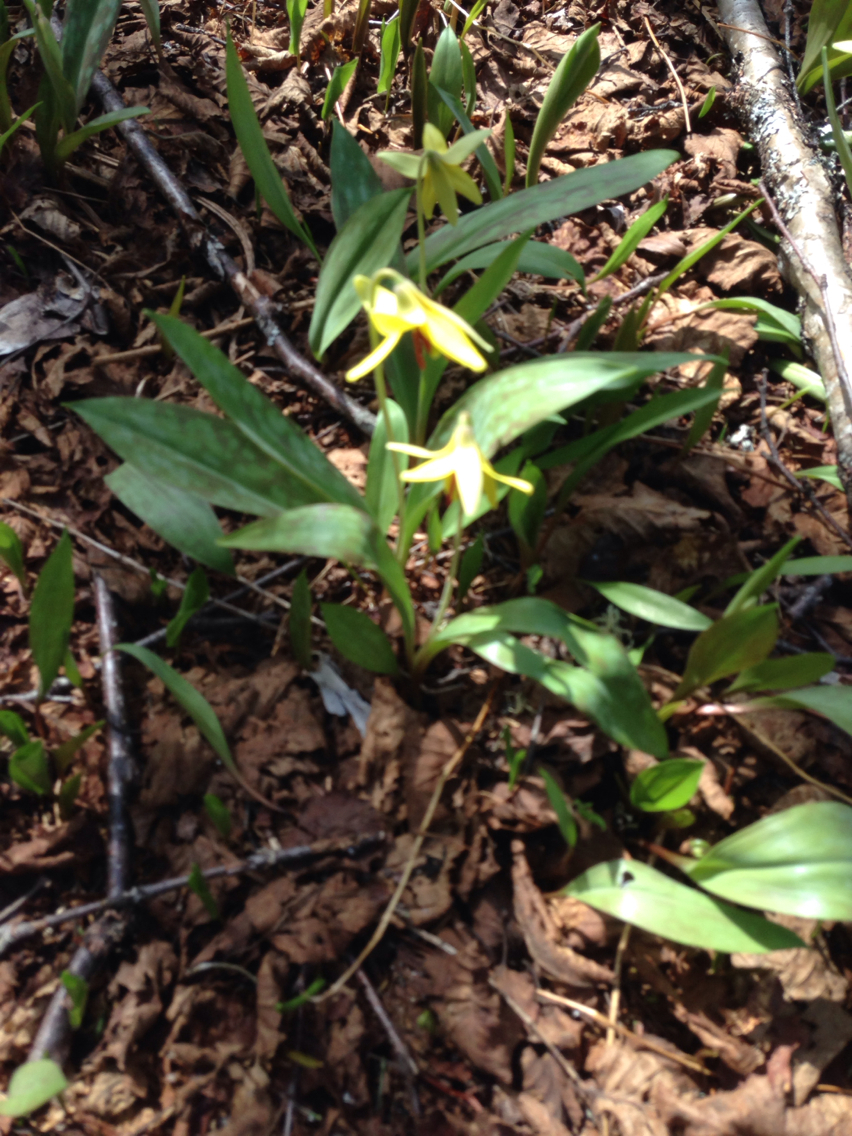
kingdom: Plantae
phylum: Tracheophyta
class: Liliopsida
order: Liliales
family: Liliaceae
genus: Erythronium
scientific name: Erythronium americanum
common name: Yellow adder's-tongue
